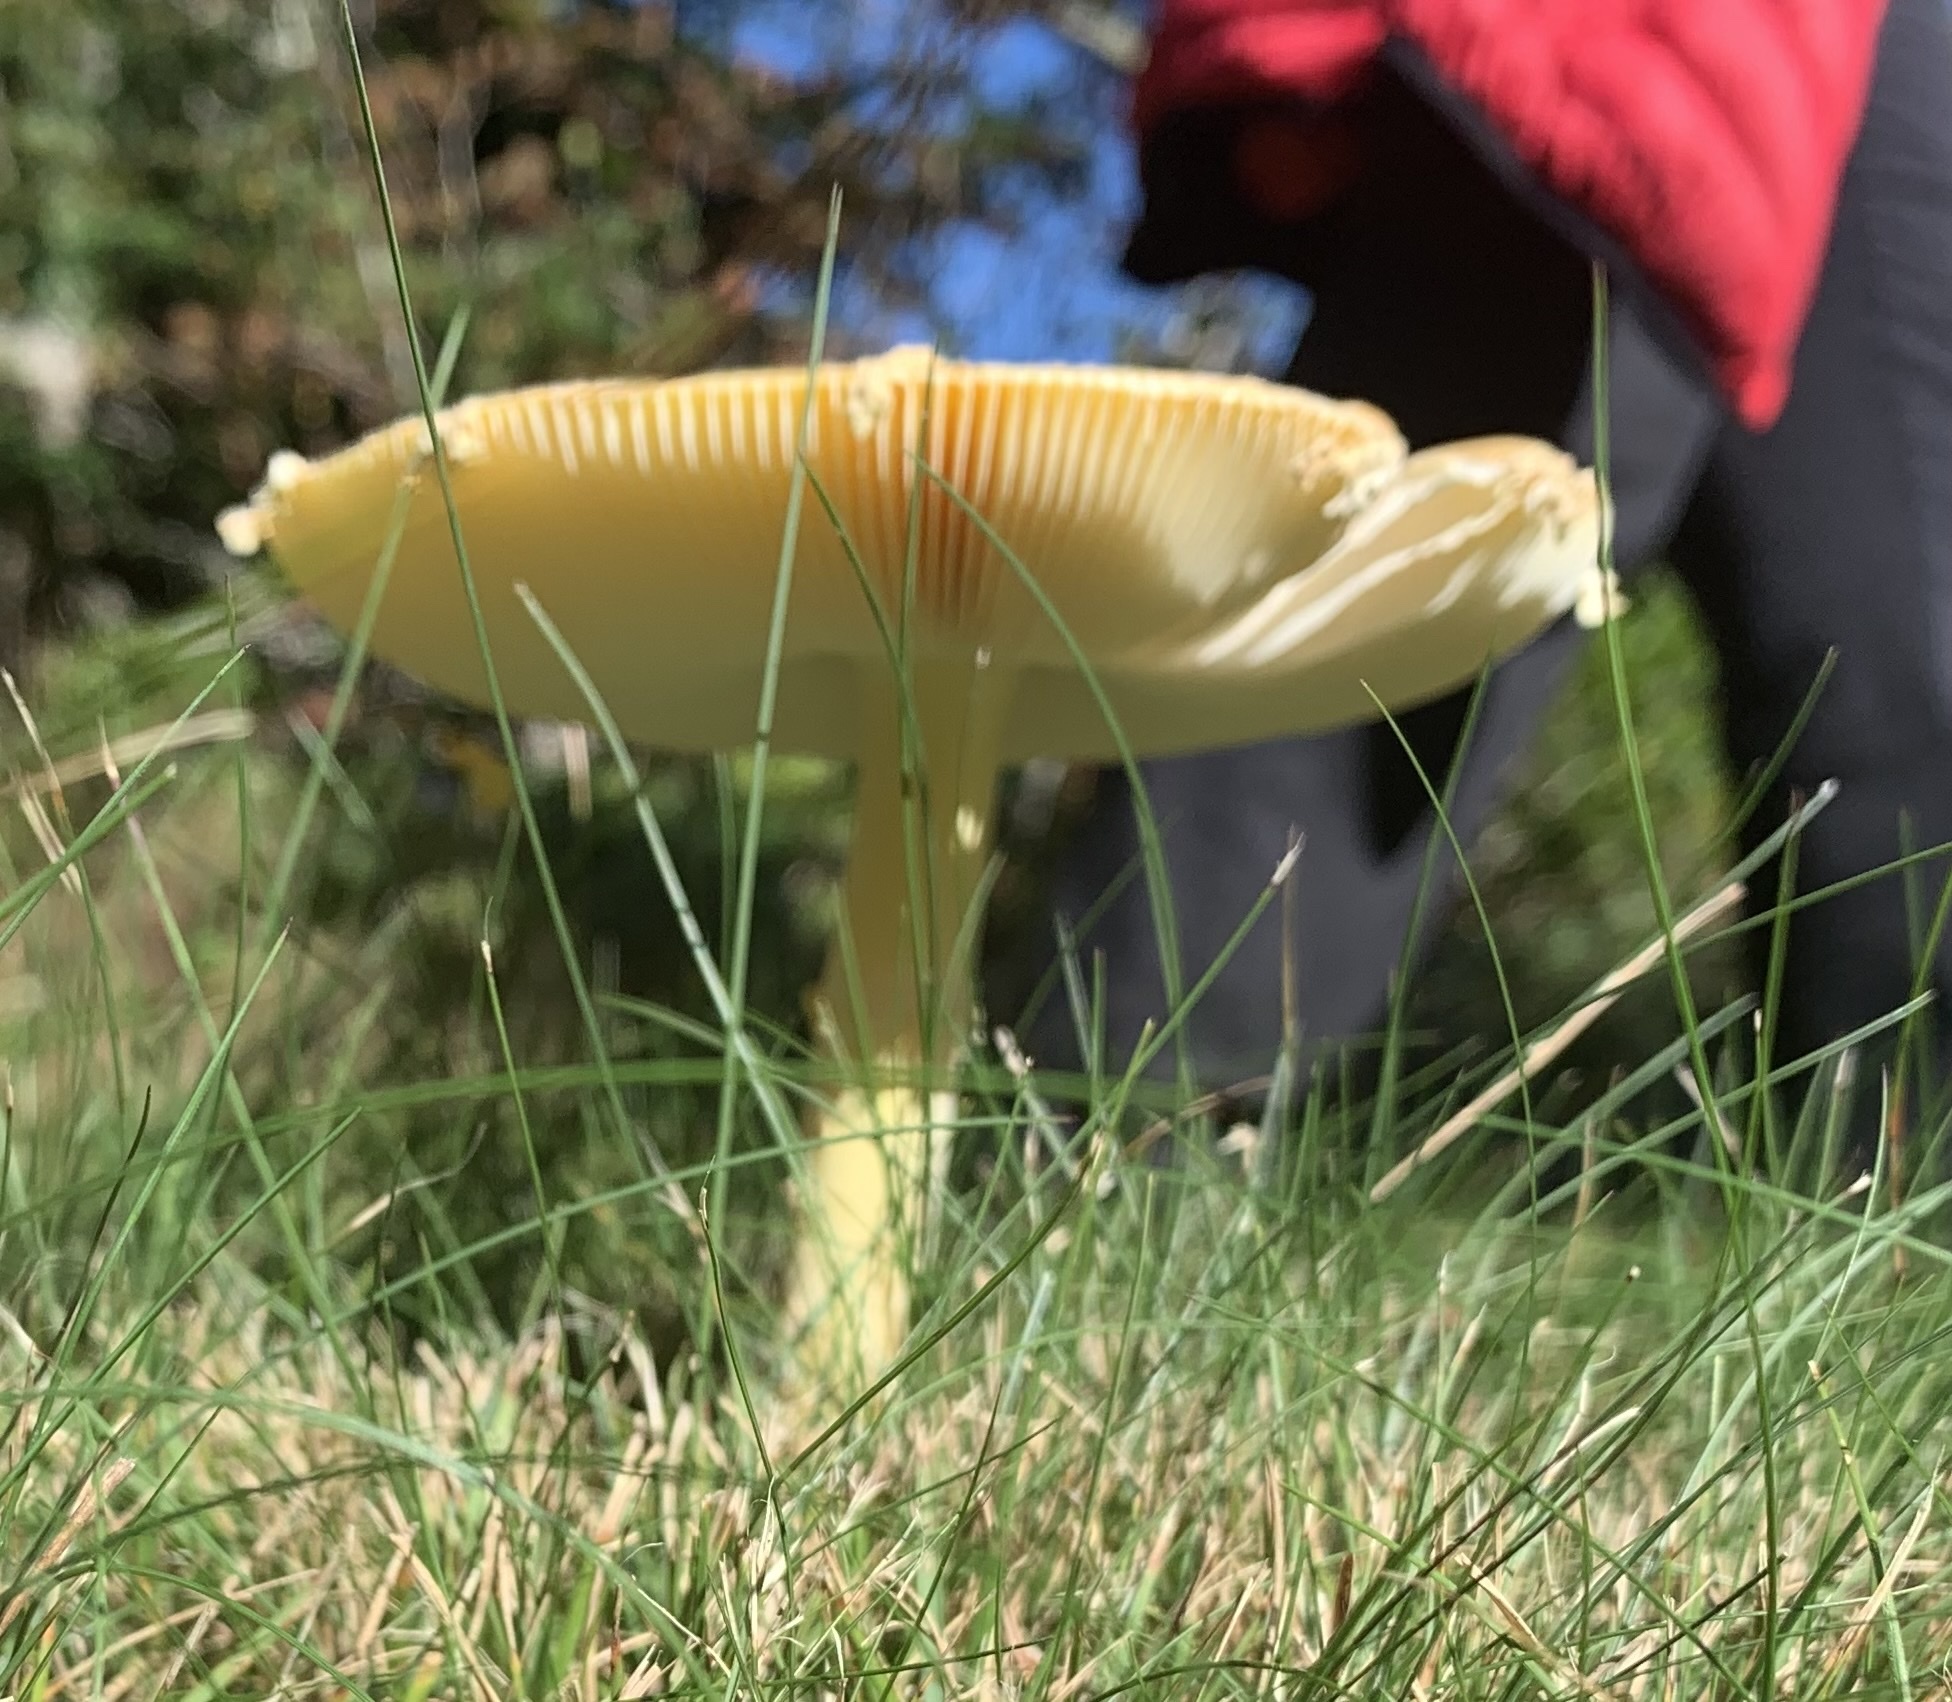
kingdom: Fungi
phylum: Basidiomycota
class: Agaricomycetes
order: Agaricales
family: Amanitaceae
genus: Amanita
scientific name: Amanita muscaria
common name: Fly agaric
